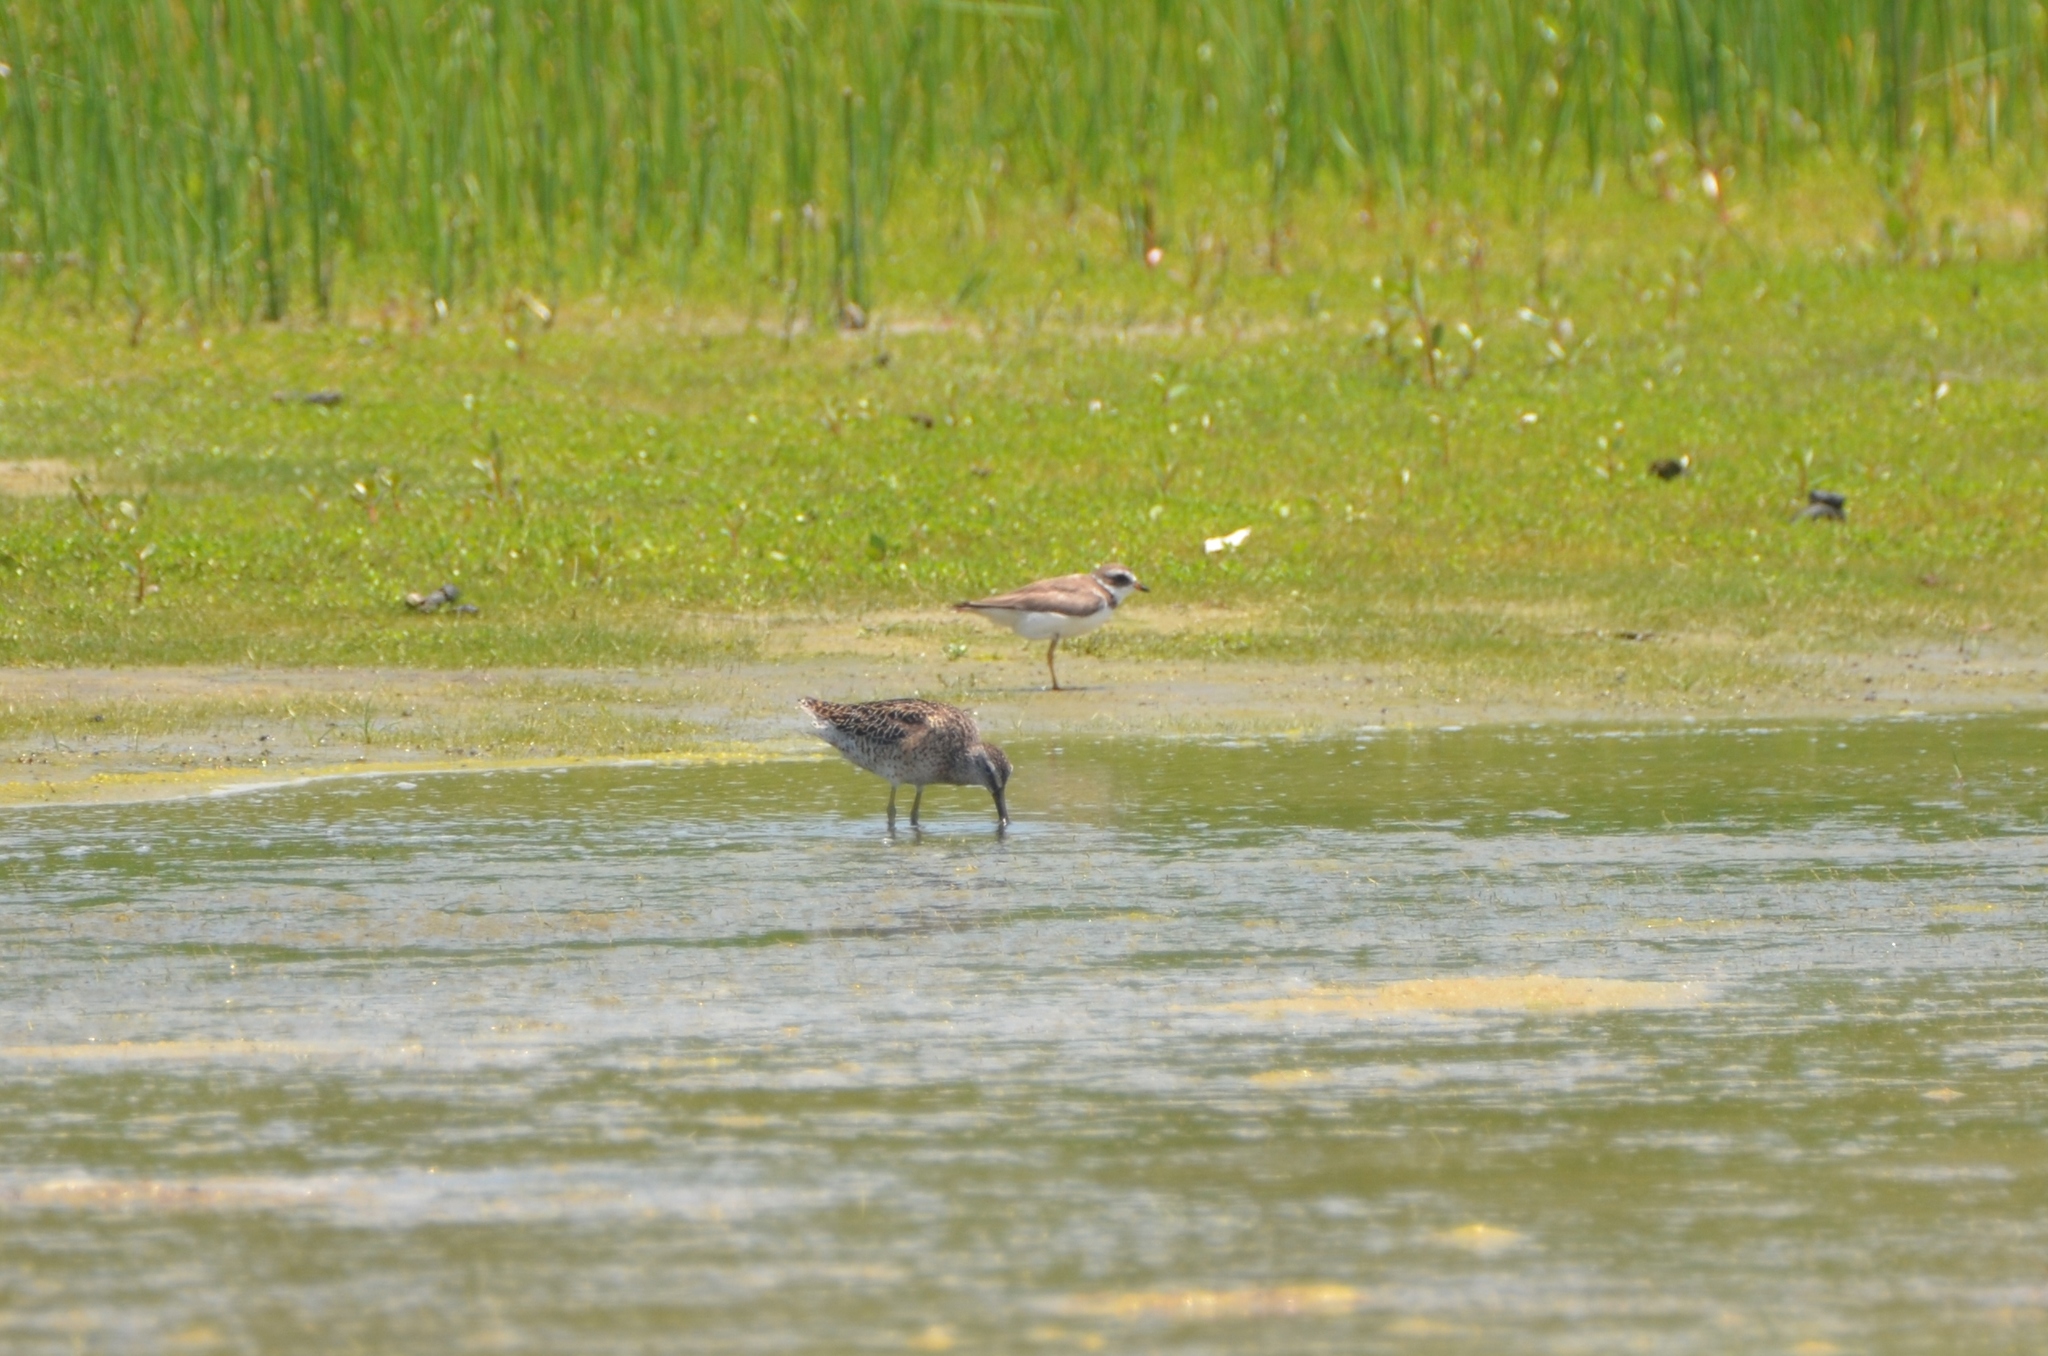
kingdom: Animalia
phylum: Chordata
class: Aves
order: Charadriiformes
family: Charadriidae
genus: Charadrius
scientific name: Charadrius semipalmatus
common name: Semipalmated plover
